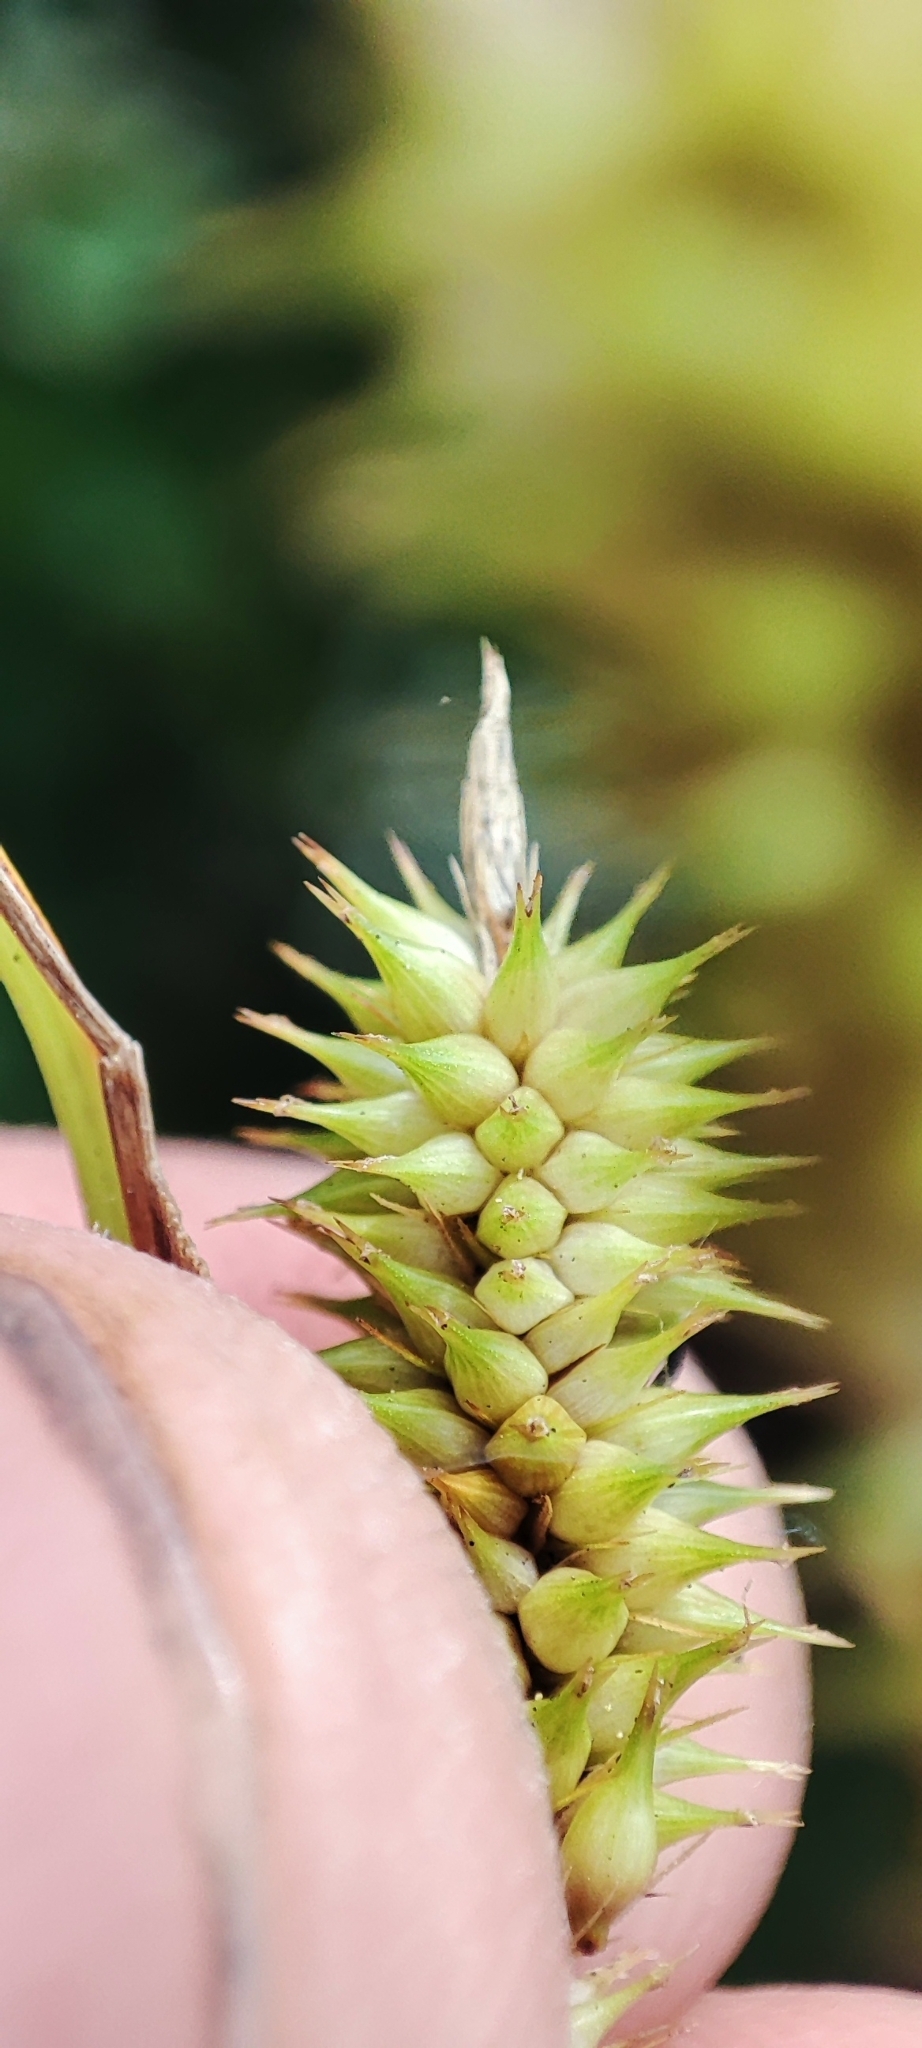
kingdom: Plantae
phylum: Tracheophyta
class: Liliopsida
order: Poales
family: Cyperaceae
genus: Carex
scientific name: Carex pseudocyperus
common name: Cyperus sedge
